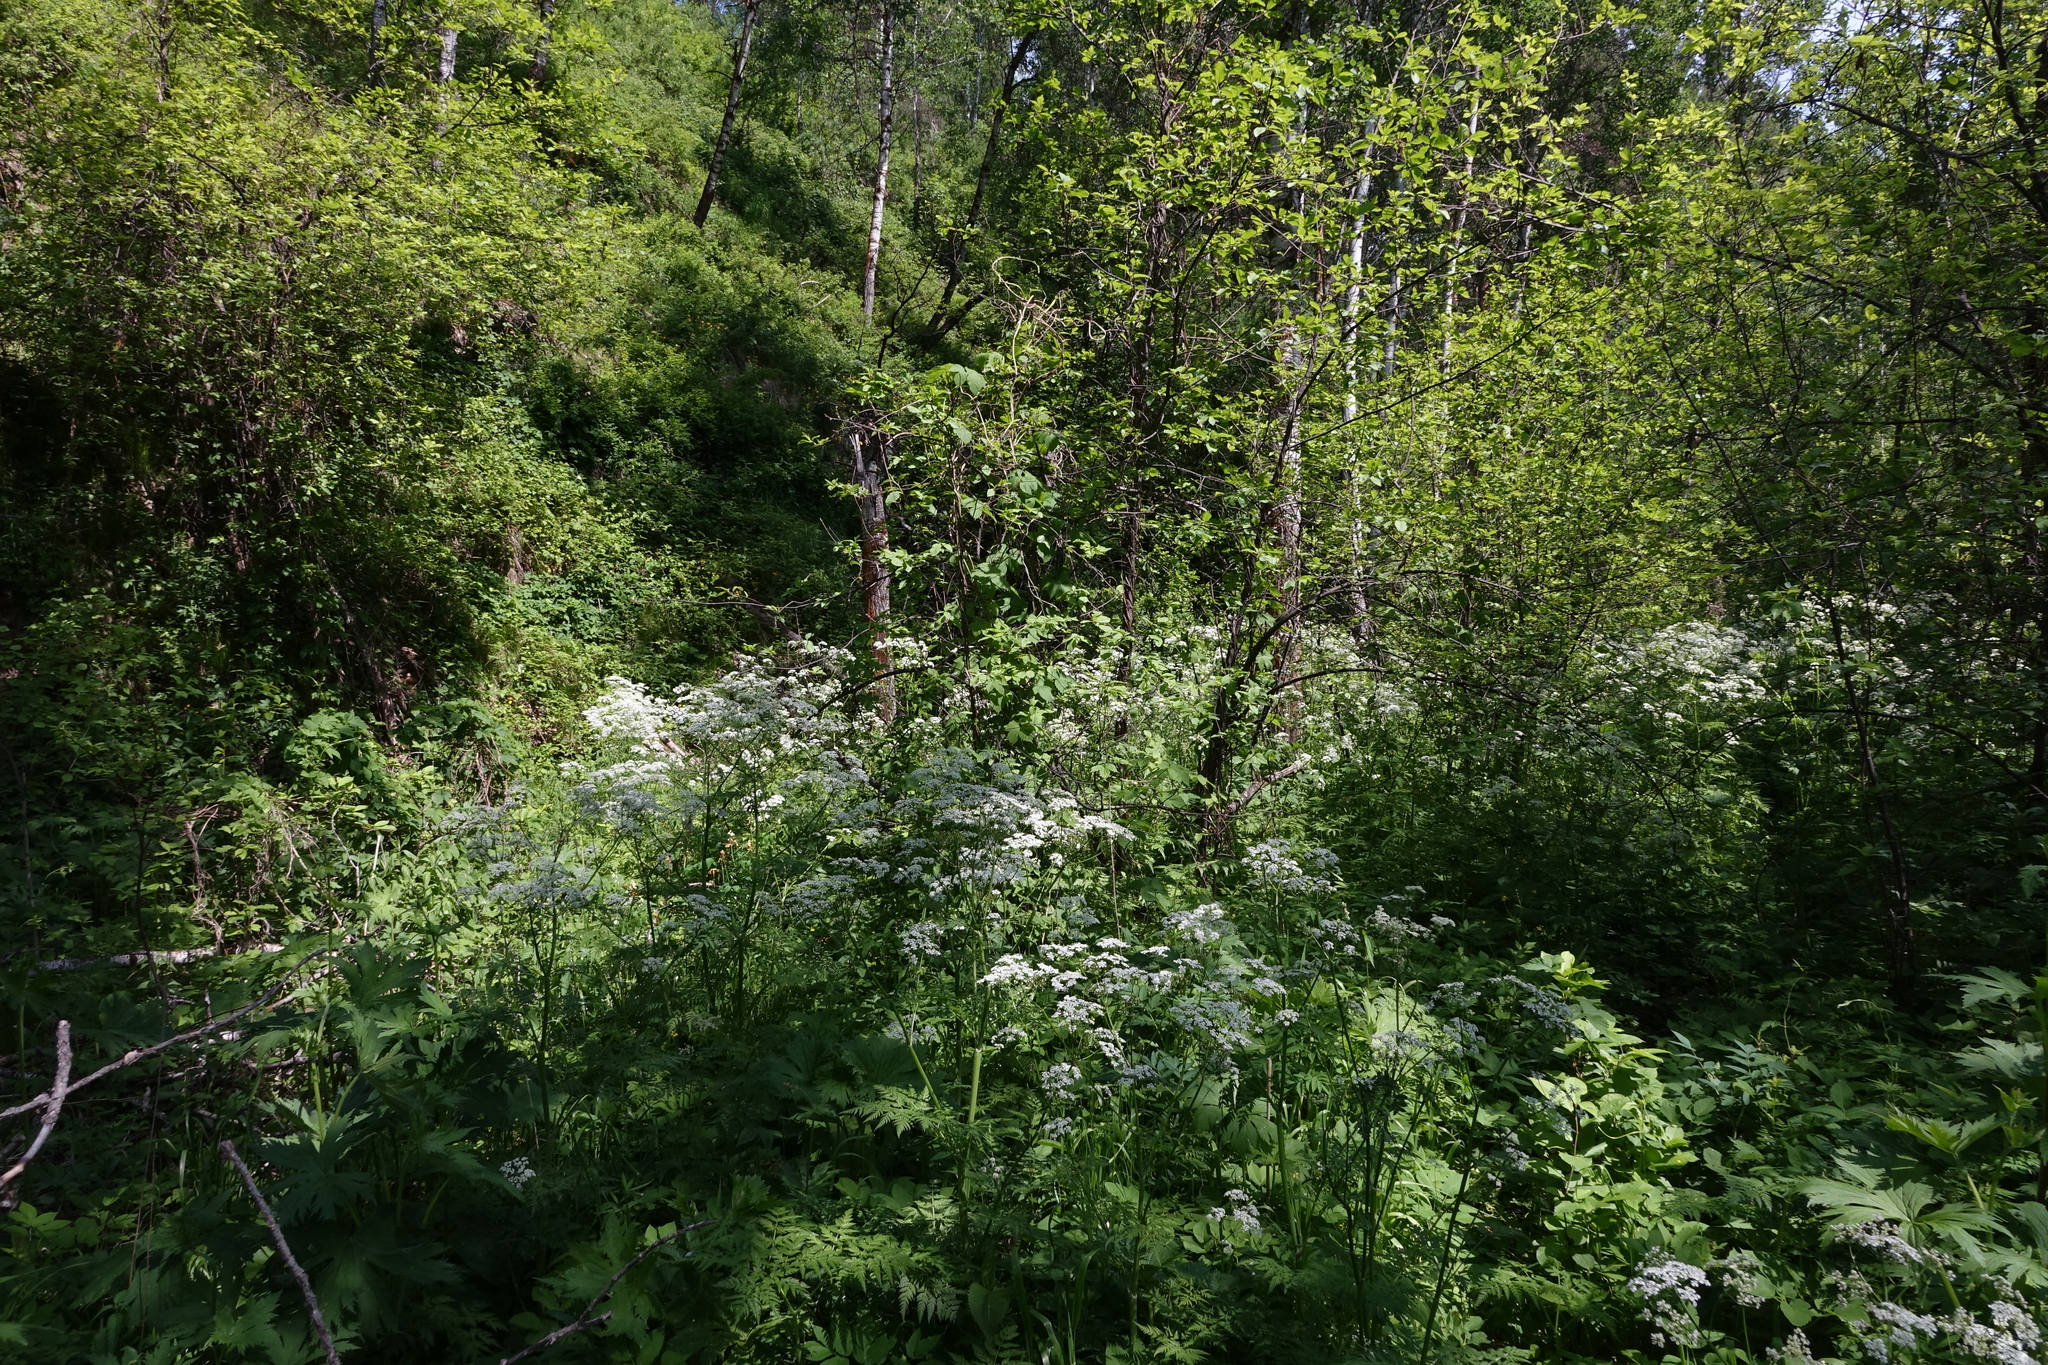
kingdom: Plantae
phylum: Tracheophyta
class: Magnoliopsida
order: Apiales
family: Apiaceae
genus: Anthriscus
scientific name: Anthriscus sylvestris
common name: Cow parsley
